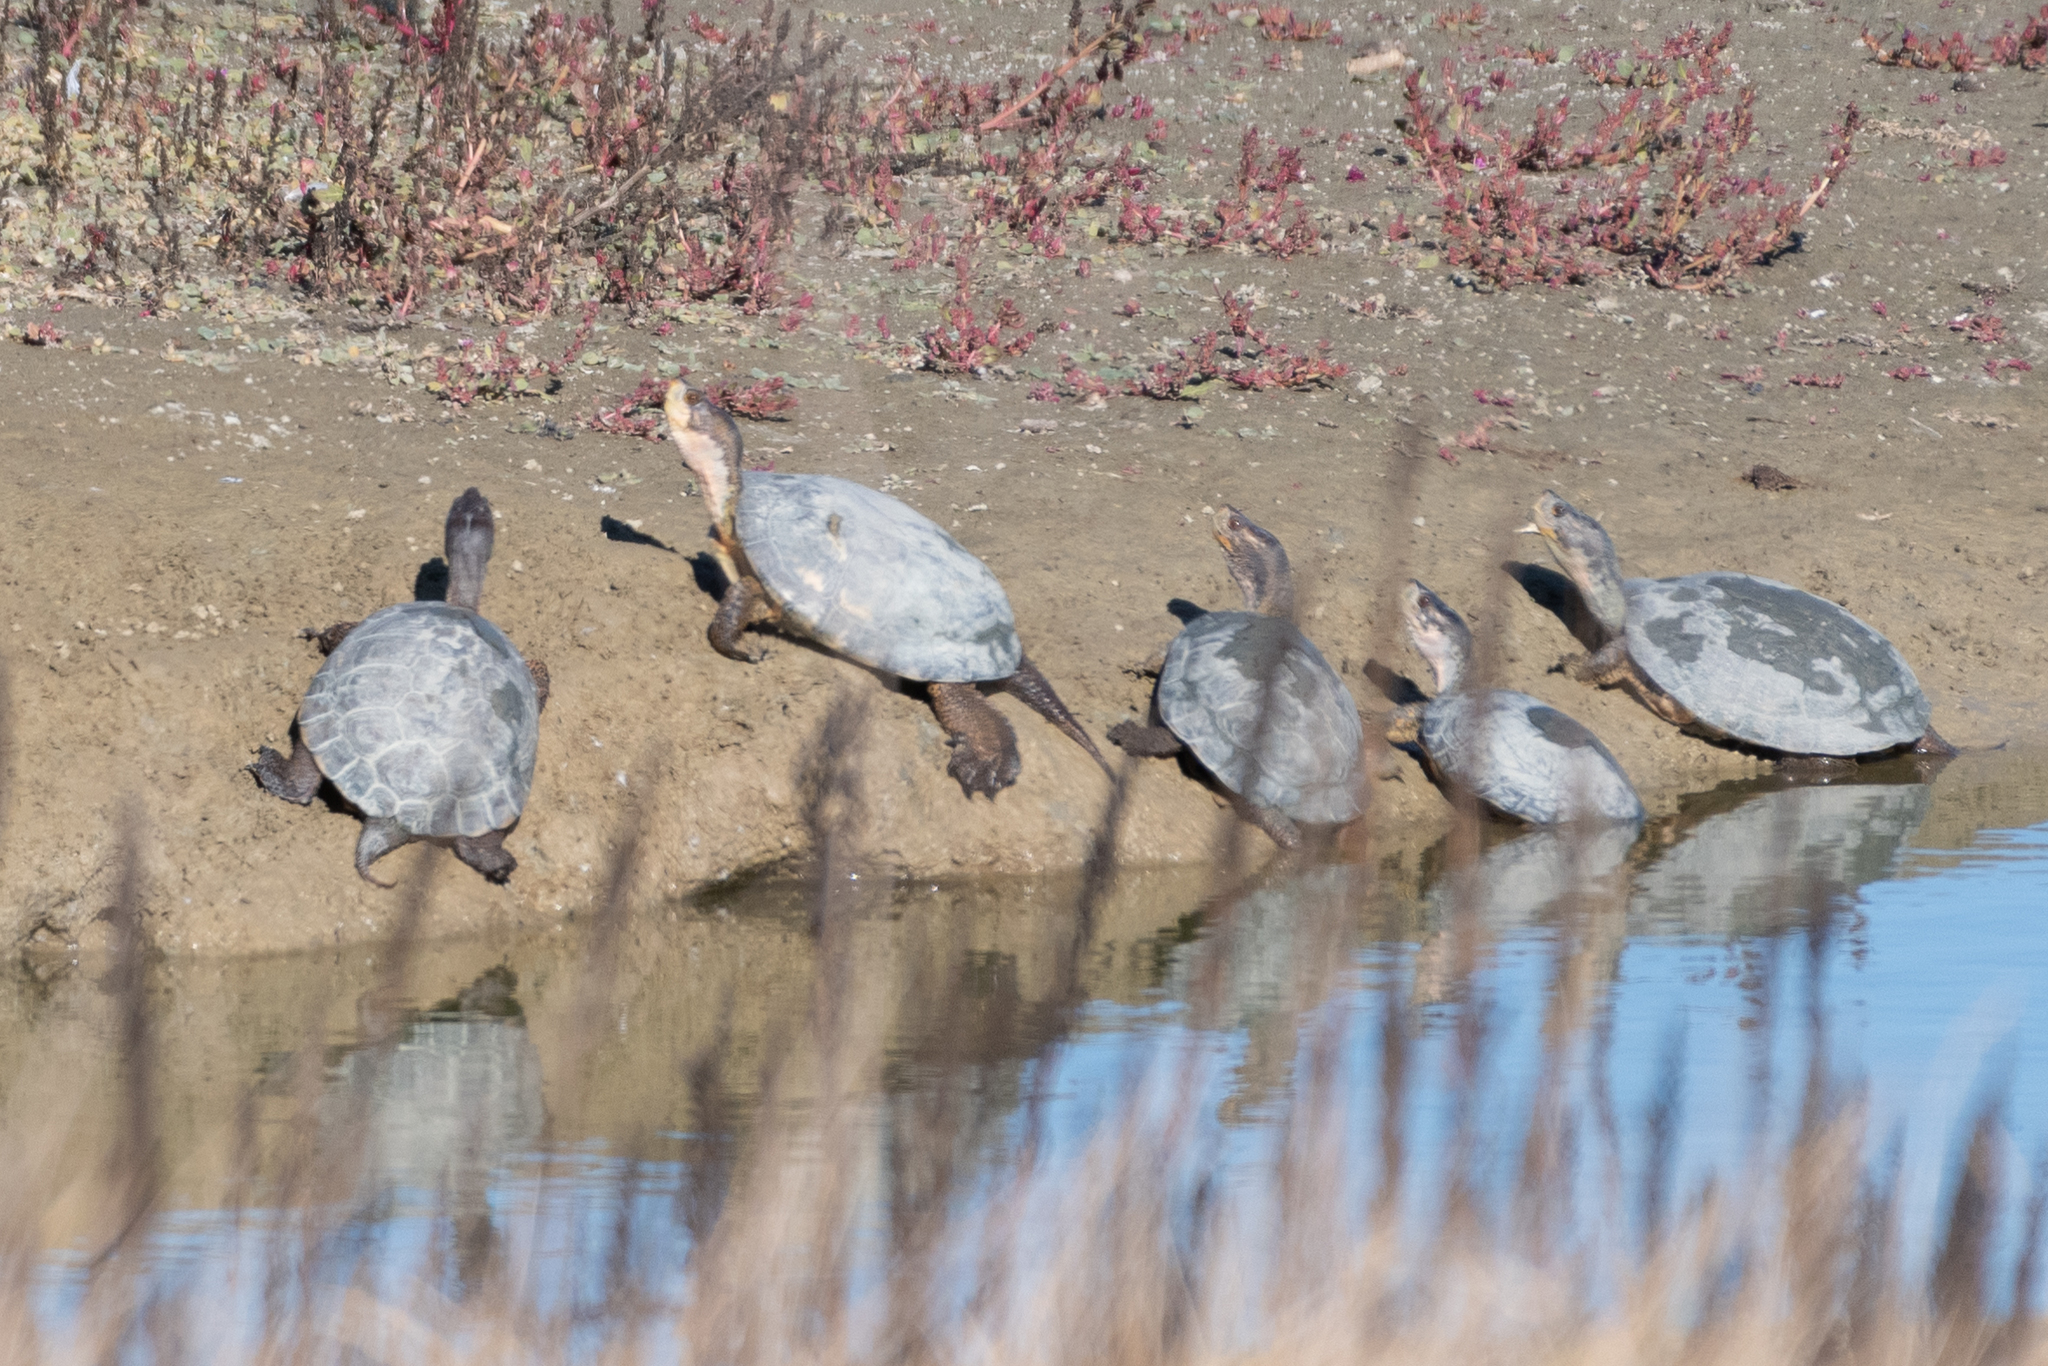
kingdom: Animalia
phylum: Chordata
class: Testudines
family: Emydidae
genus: Actinemys
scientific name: Actinemys marmorata
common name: Western pond turtle
